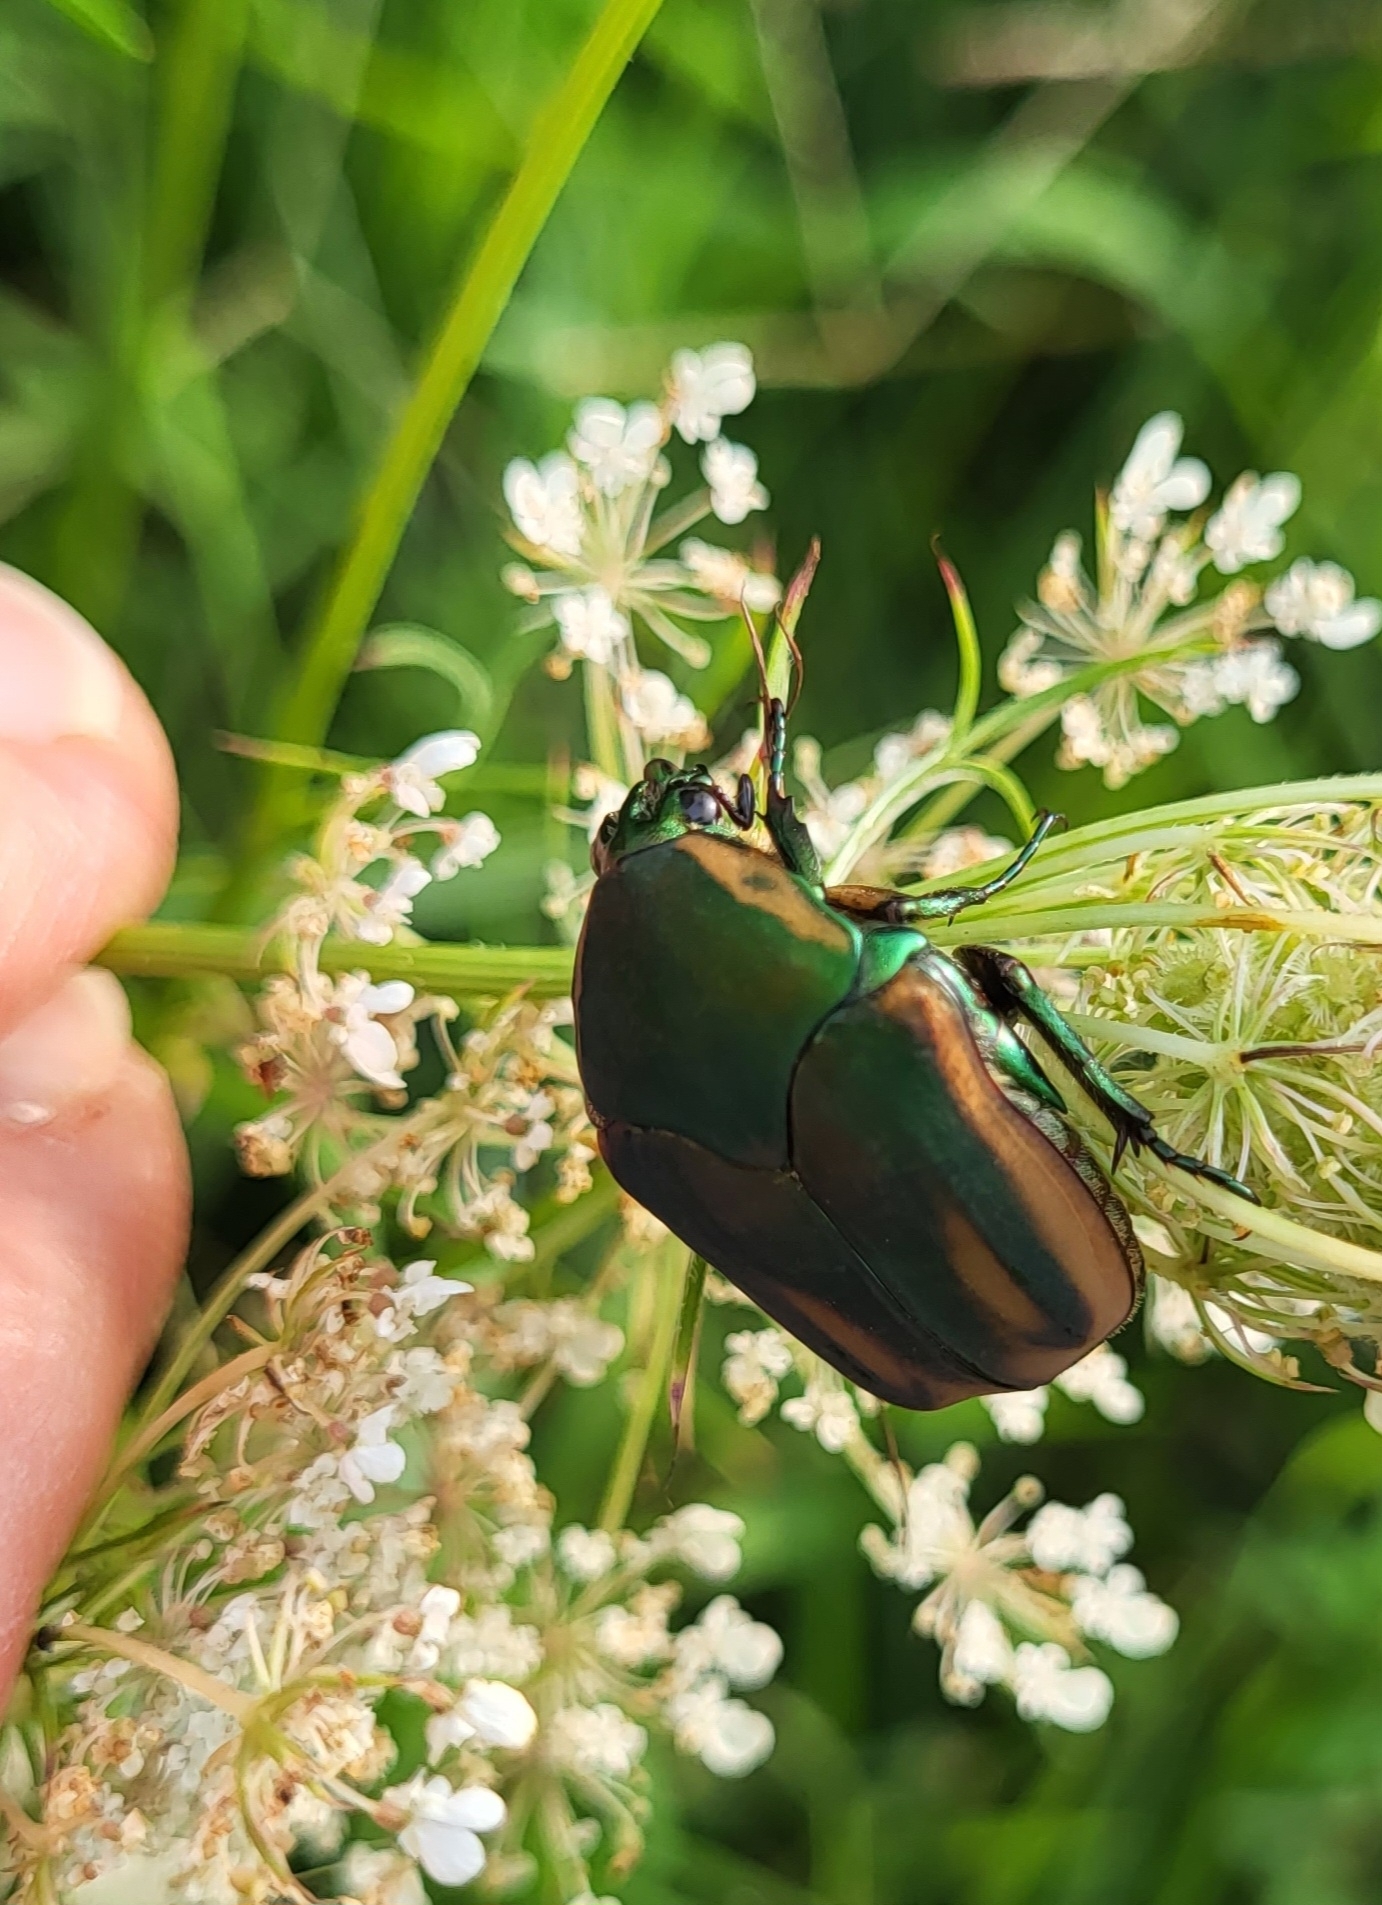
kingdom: Animalia
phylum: Arthropoda
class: Insecta
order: Coleoptera
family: Scarabaeidae
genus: Cotinis
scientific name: Cotinis nitida
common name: Common green june beetle
